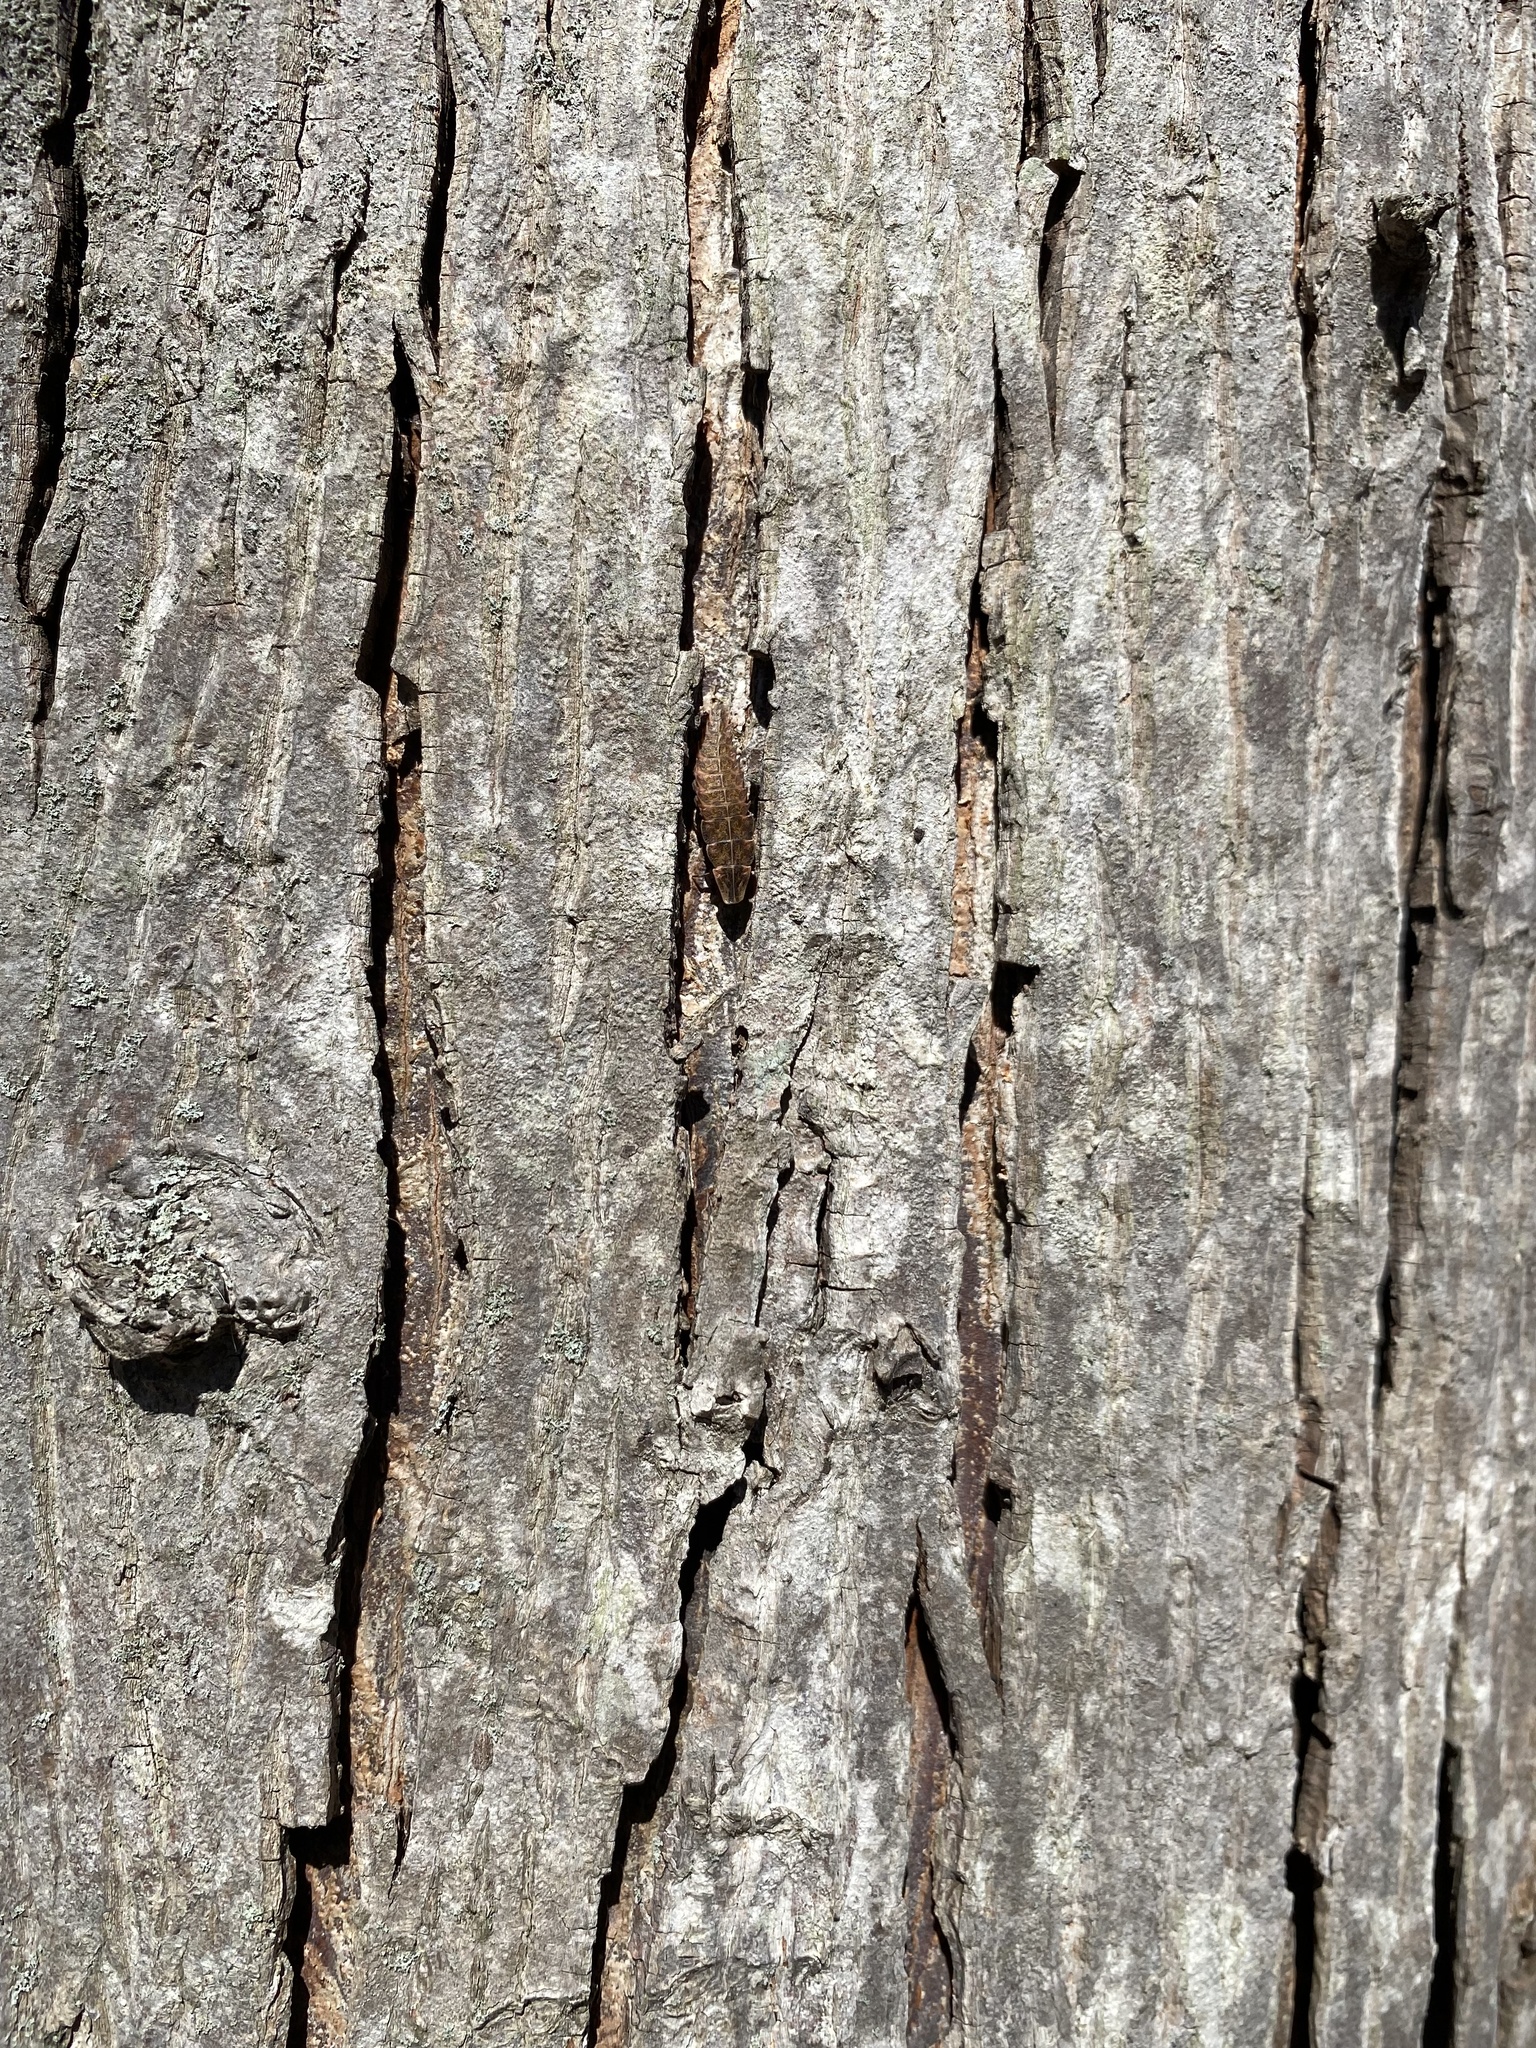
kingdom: Animalia
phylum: Arthropoda
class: Insecta
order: Coleoptera
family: Lampyridae
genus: Pyractomena
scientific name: Pyractomena borealis
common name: Northern firefly
